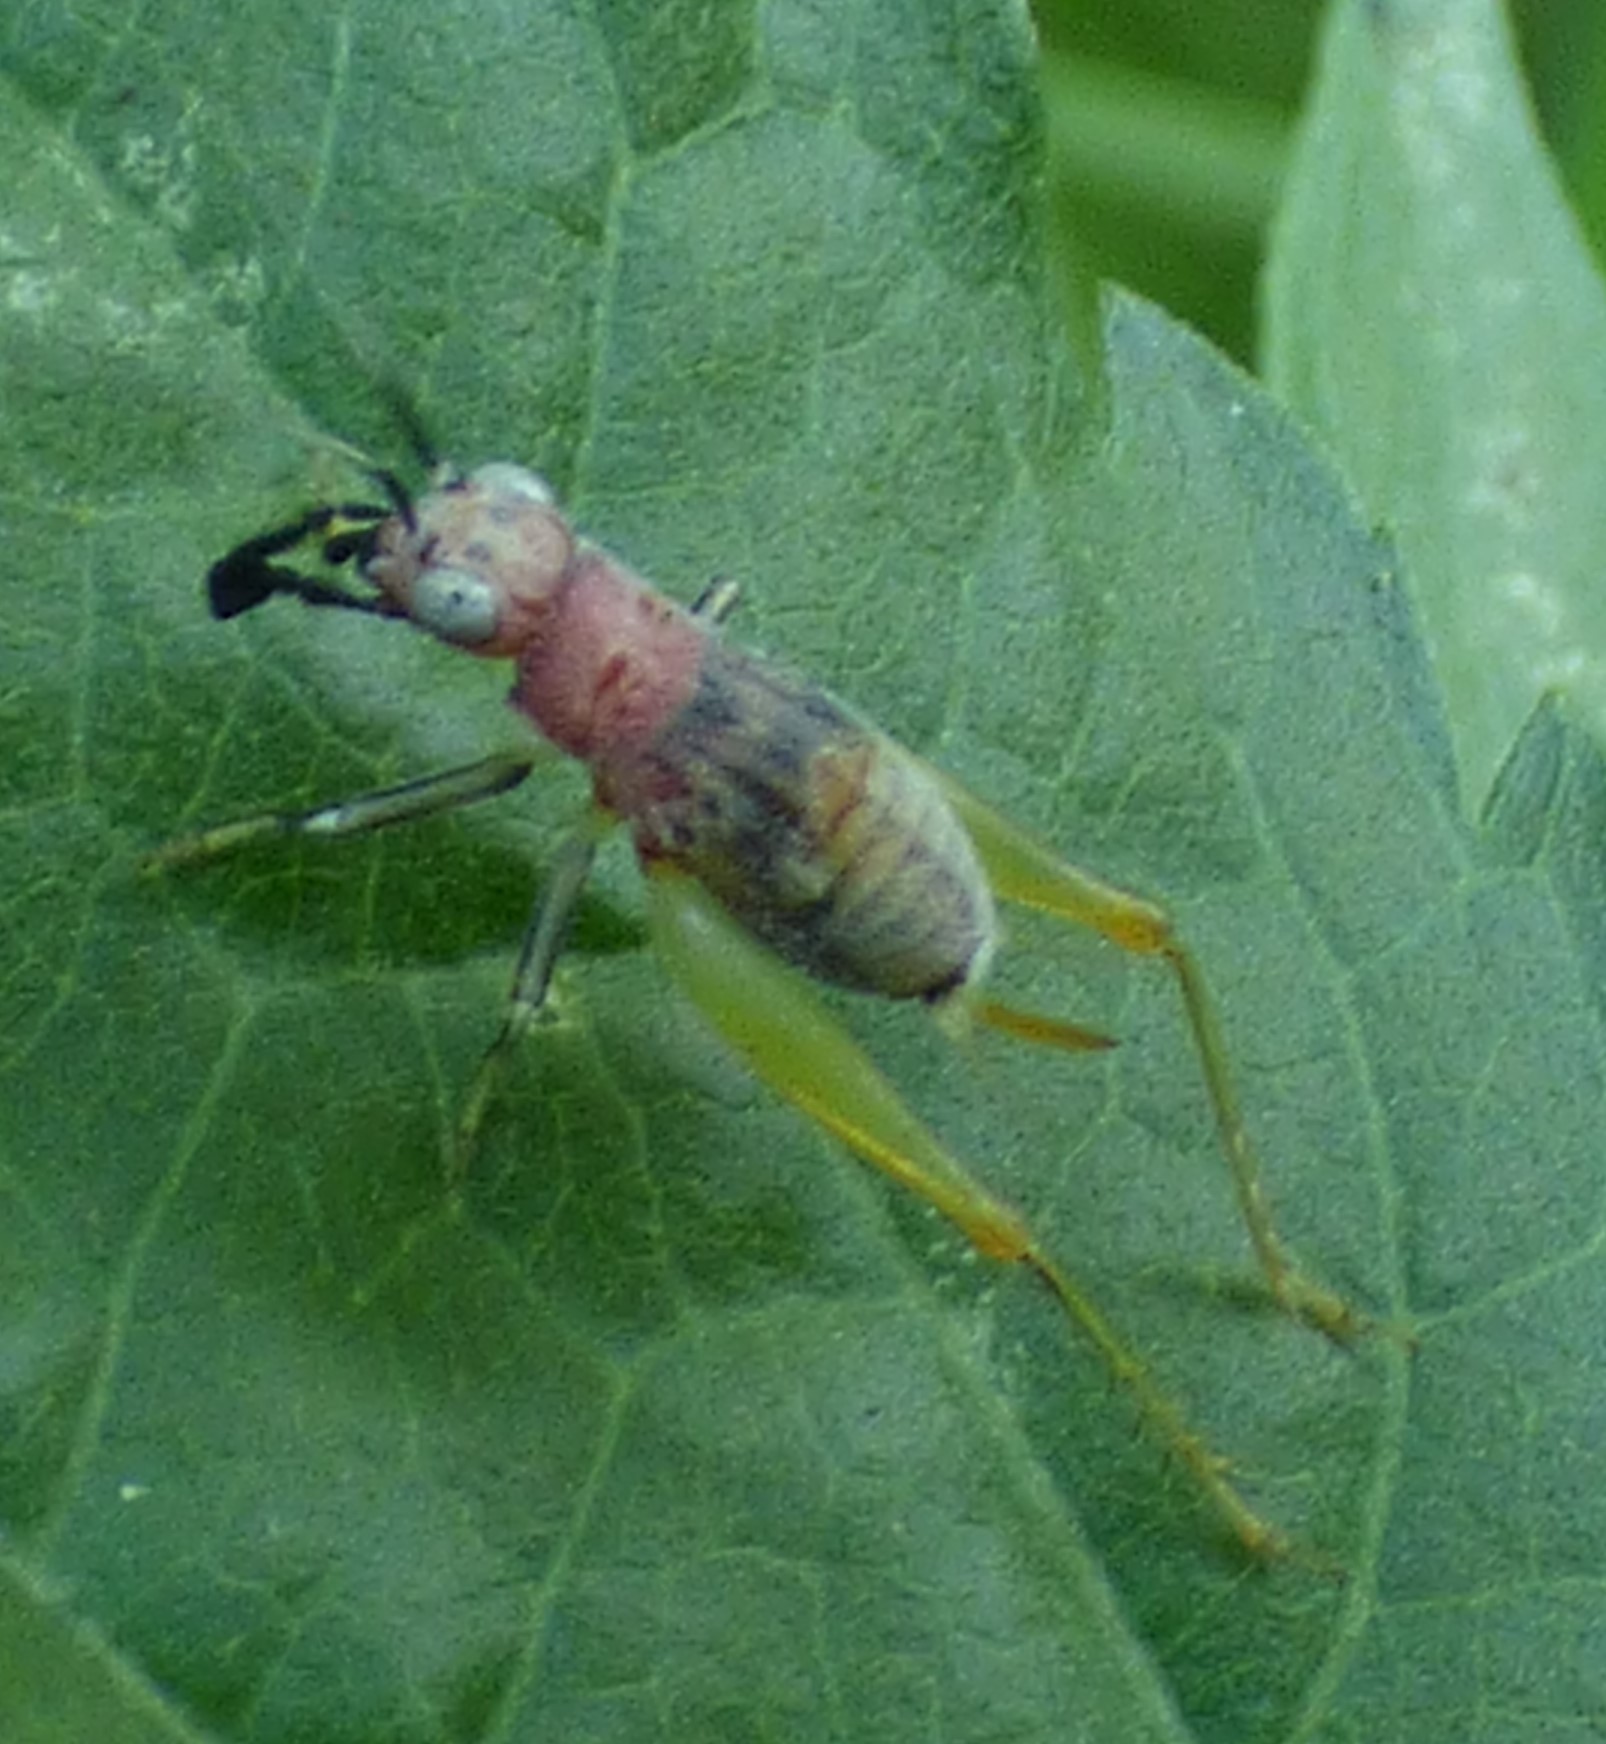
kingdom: Animalia
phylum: Arthropoda
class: Insecta
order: Orthoptera
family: Trigonidiidae
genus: Phyllopalpus
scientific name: Phyllopalpus pulchellus
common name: Handsome trig
